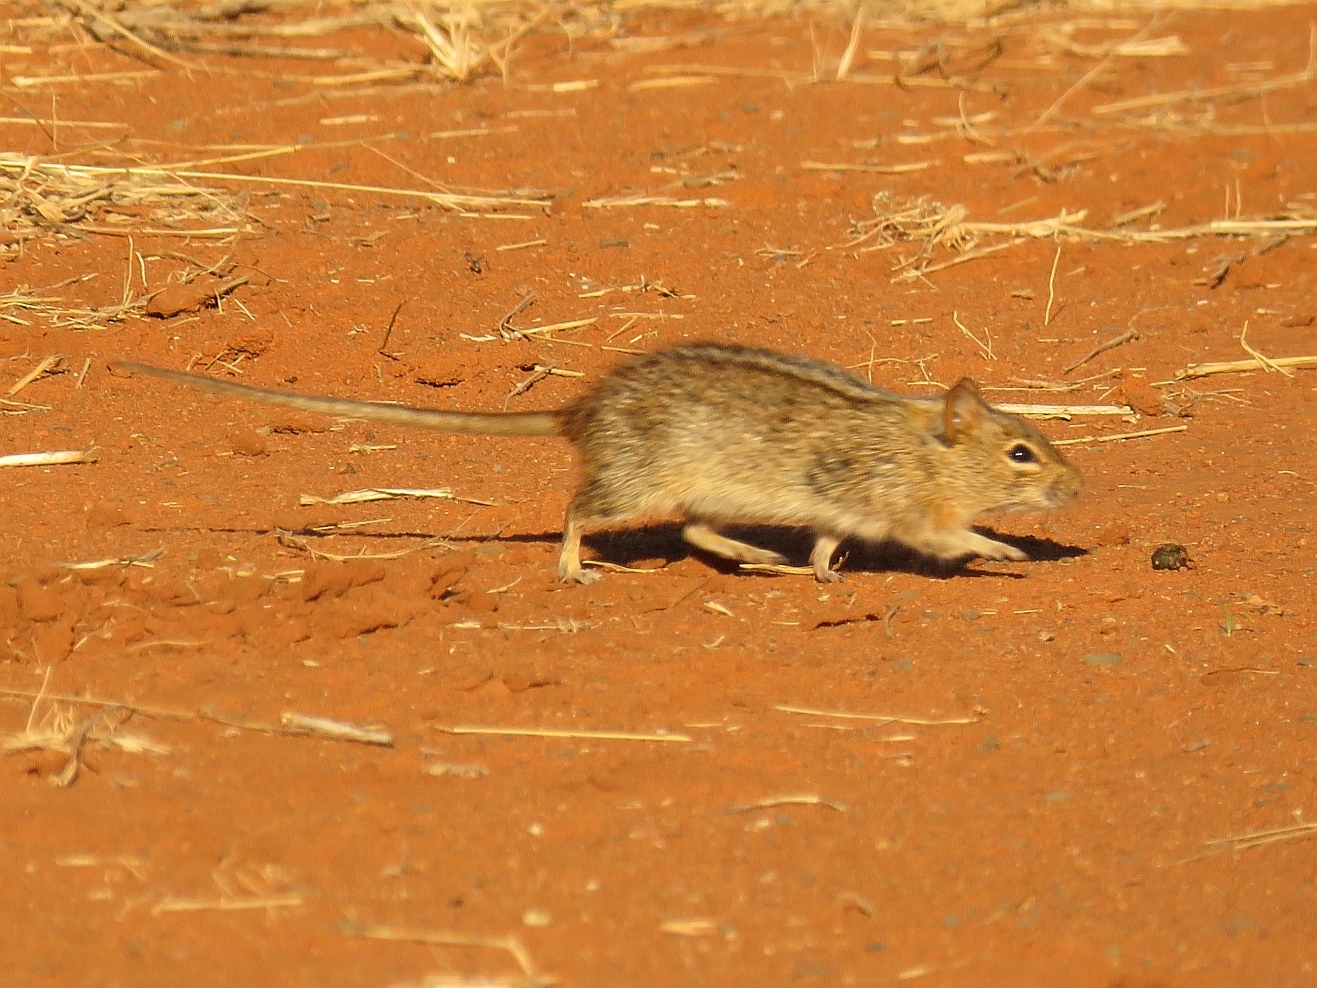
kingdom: Animalia
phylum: Chordata
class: Mammalia
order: Rodentia
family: Muridae
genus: Rhabdomys
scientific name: Rhabdomys pumilio
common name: Xeric four-striped grass rat
